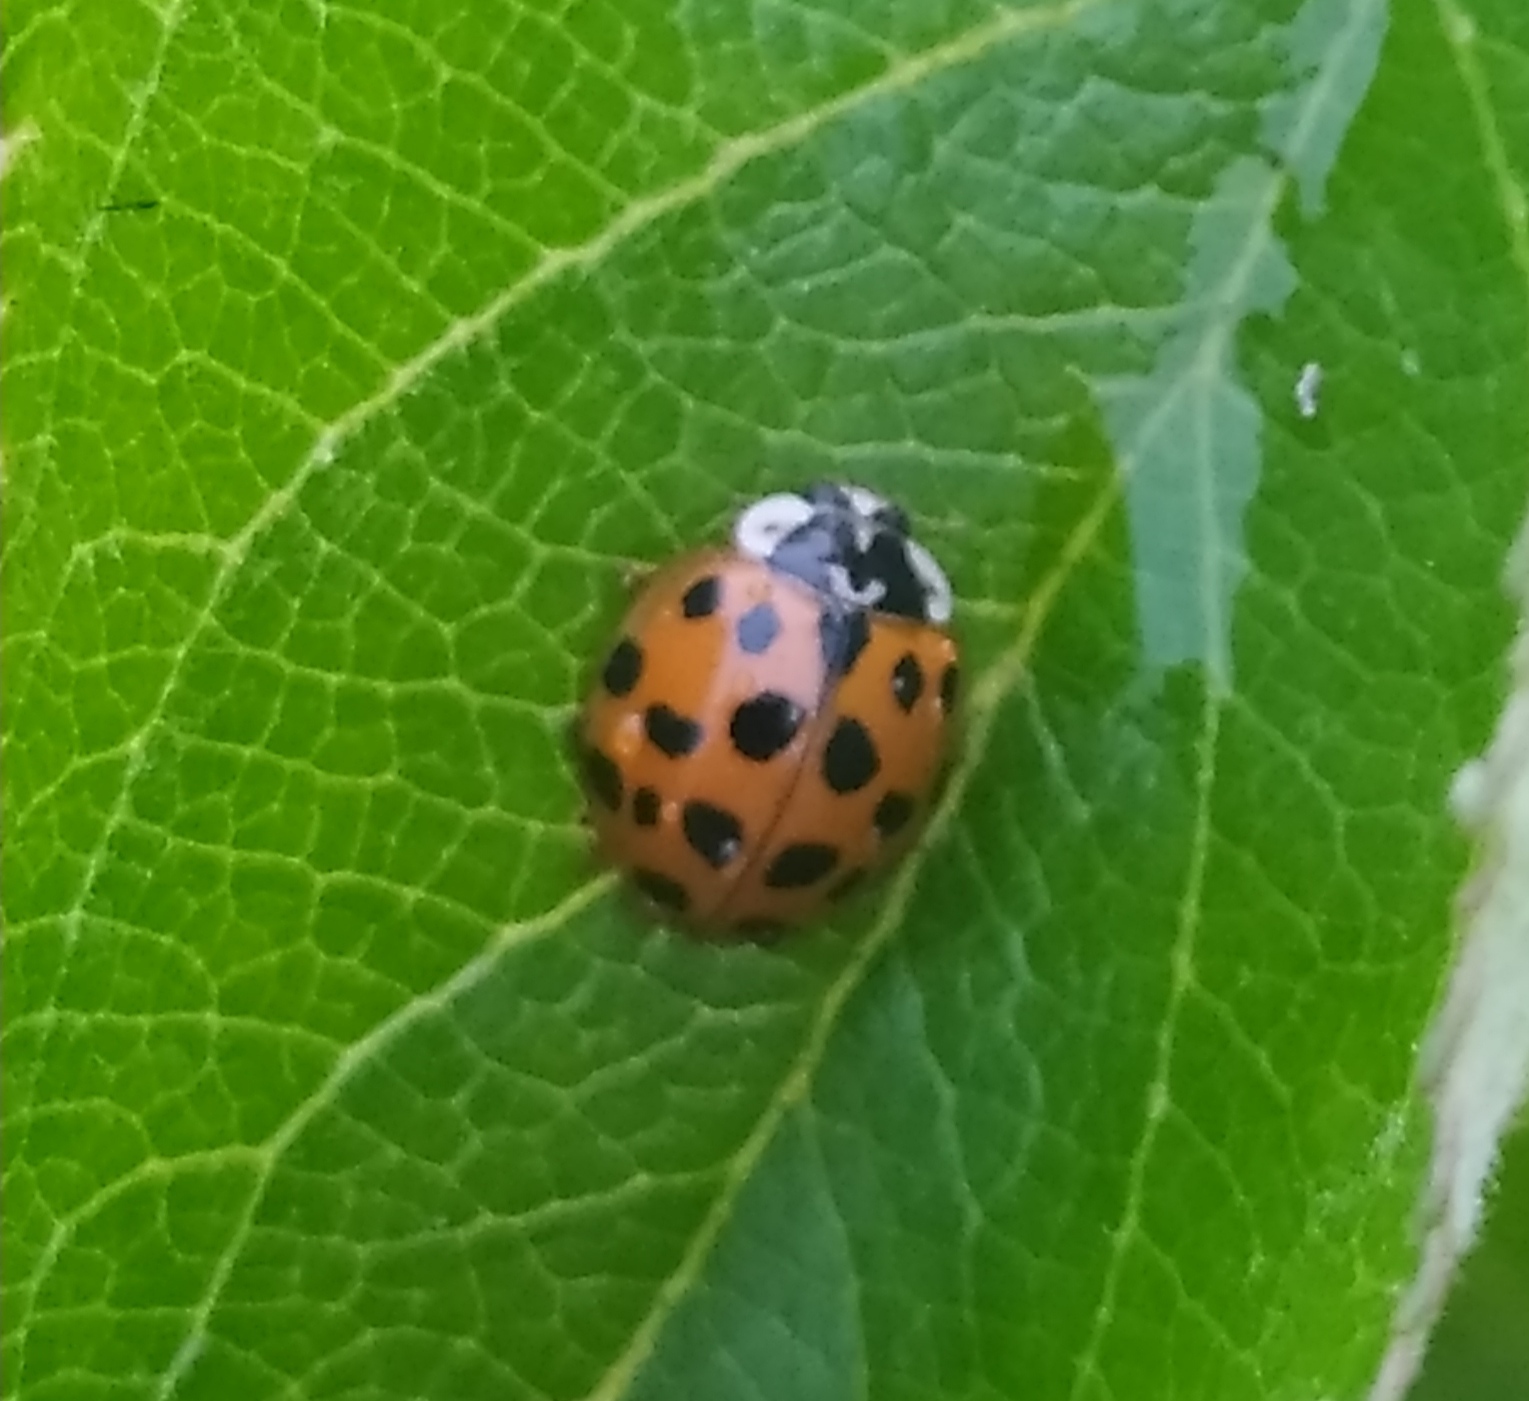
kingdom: Animalia
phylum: Arthropoda
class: Insecta
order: Coleoptera
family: Coccinellidae
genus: Harmonia
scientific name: Harmonia axyridis
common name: Harlequin ladybird
